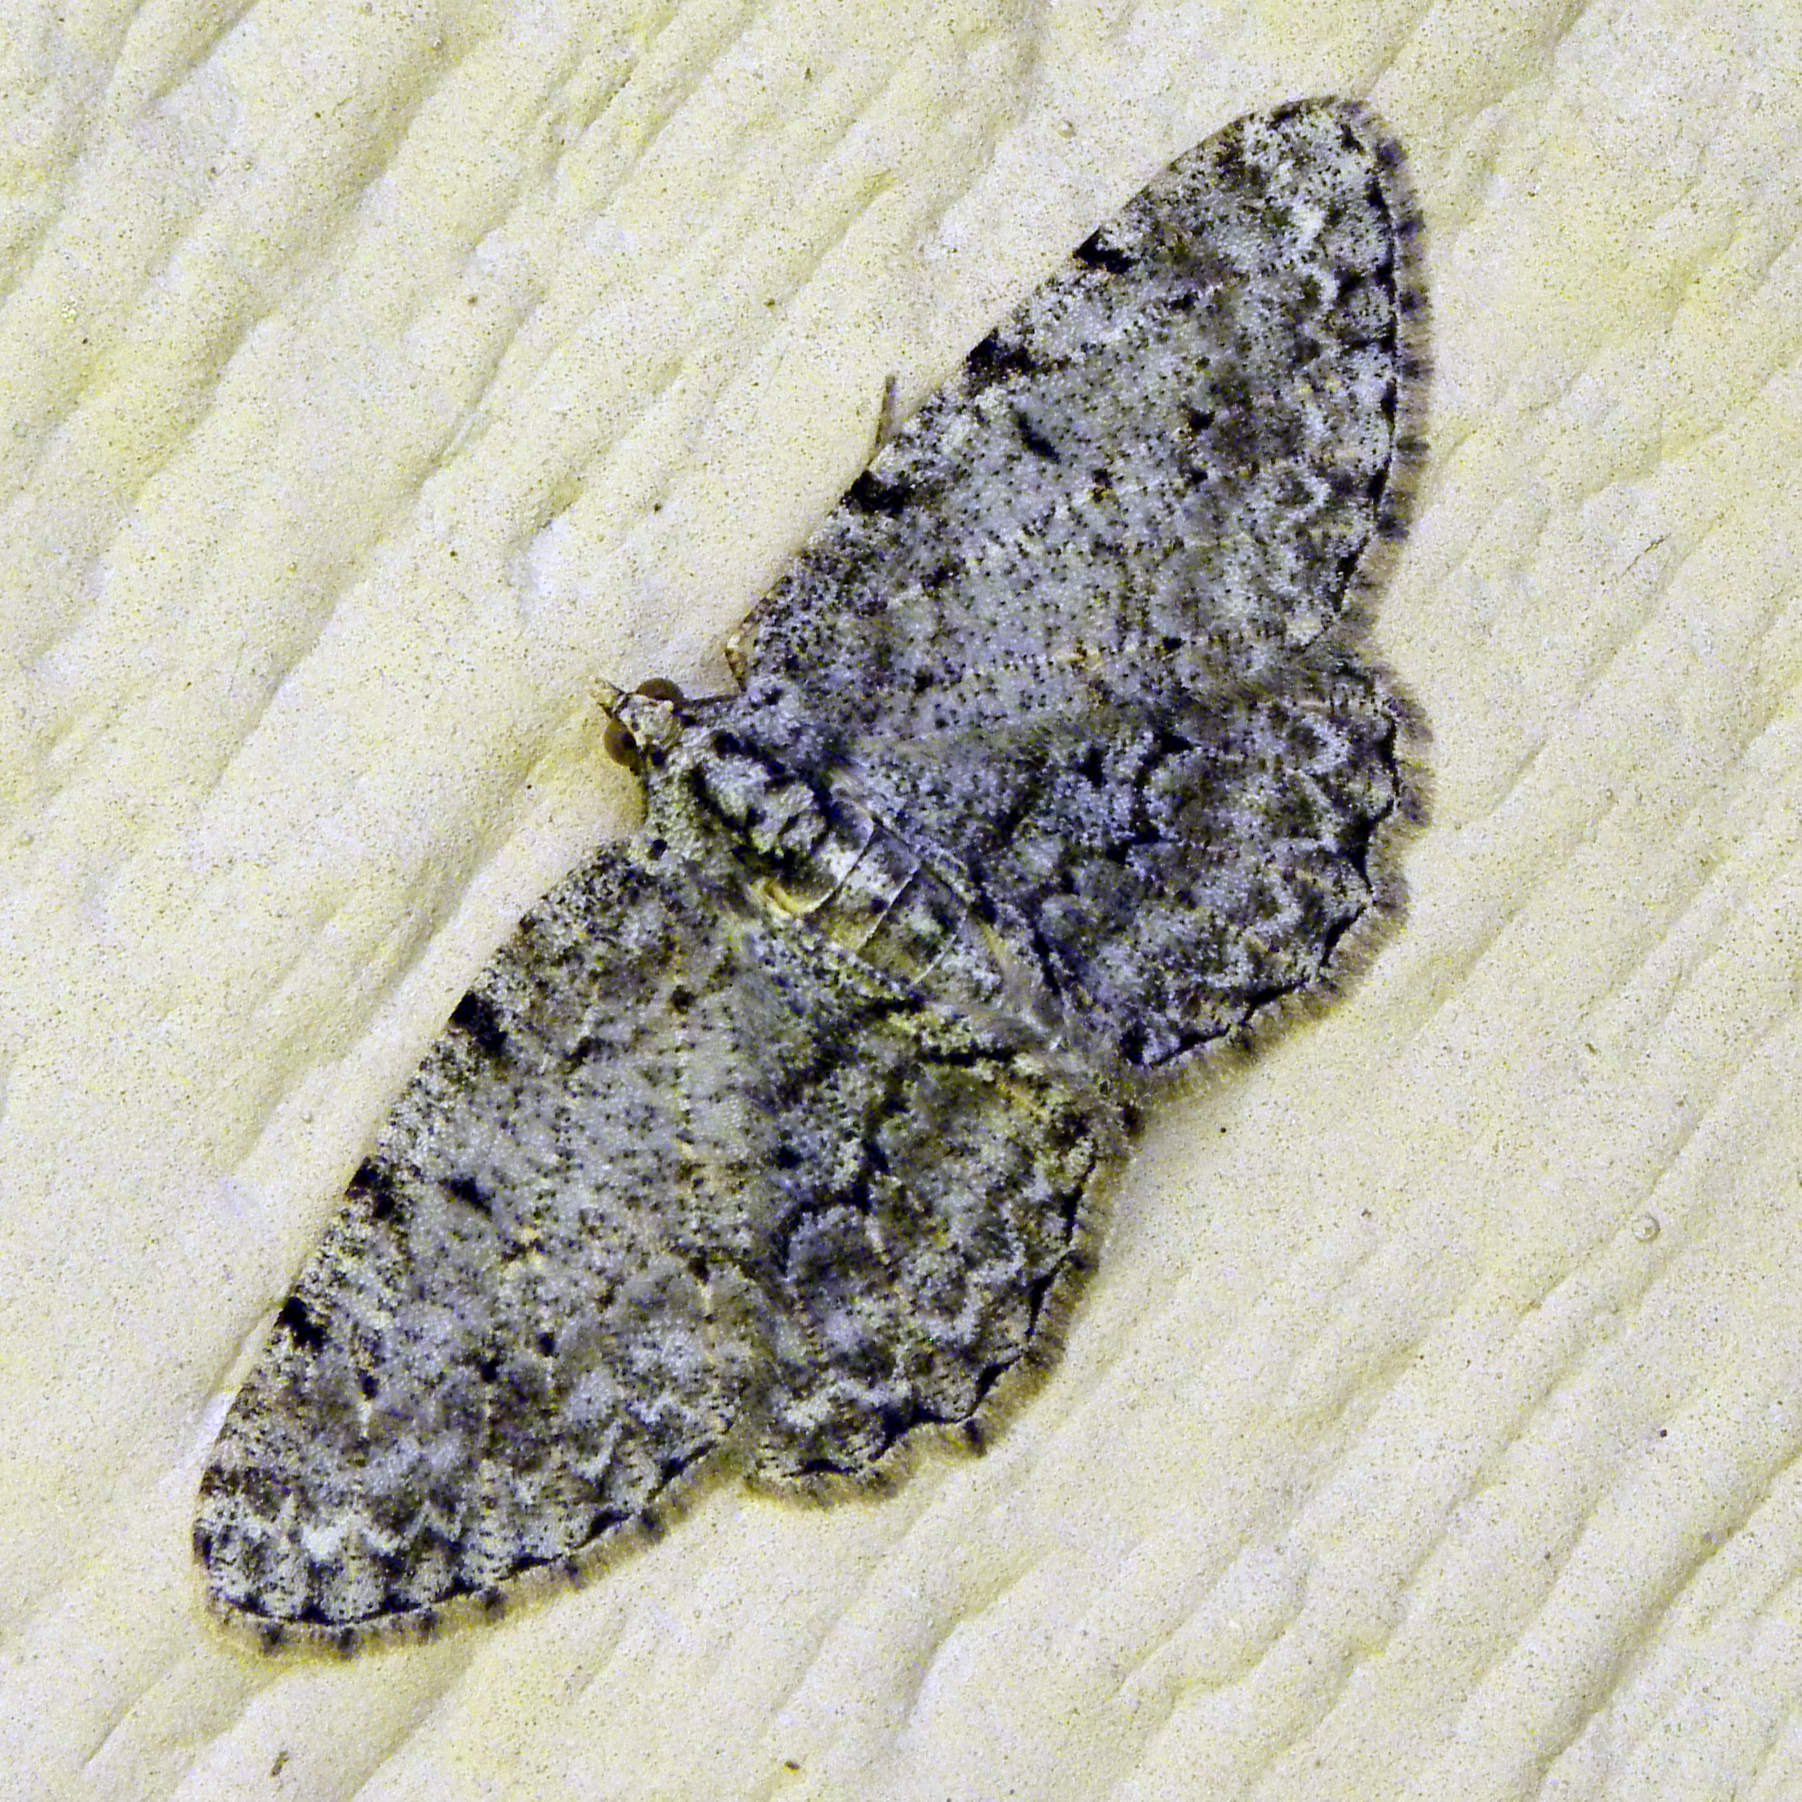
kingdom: Animalia
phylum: Arthropoda
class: Insecta
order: Lepidoptera
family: Geometridae
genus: Protoboarmia
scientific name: Protoboarmia porcelaria
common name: Porcelain gray
